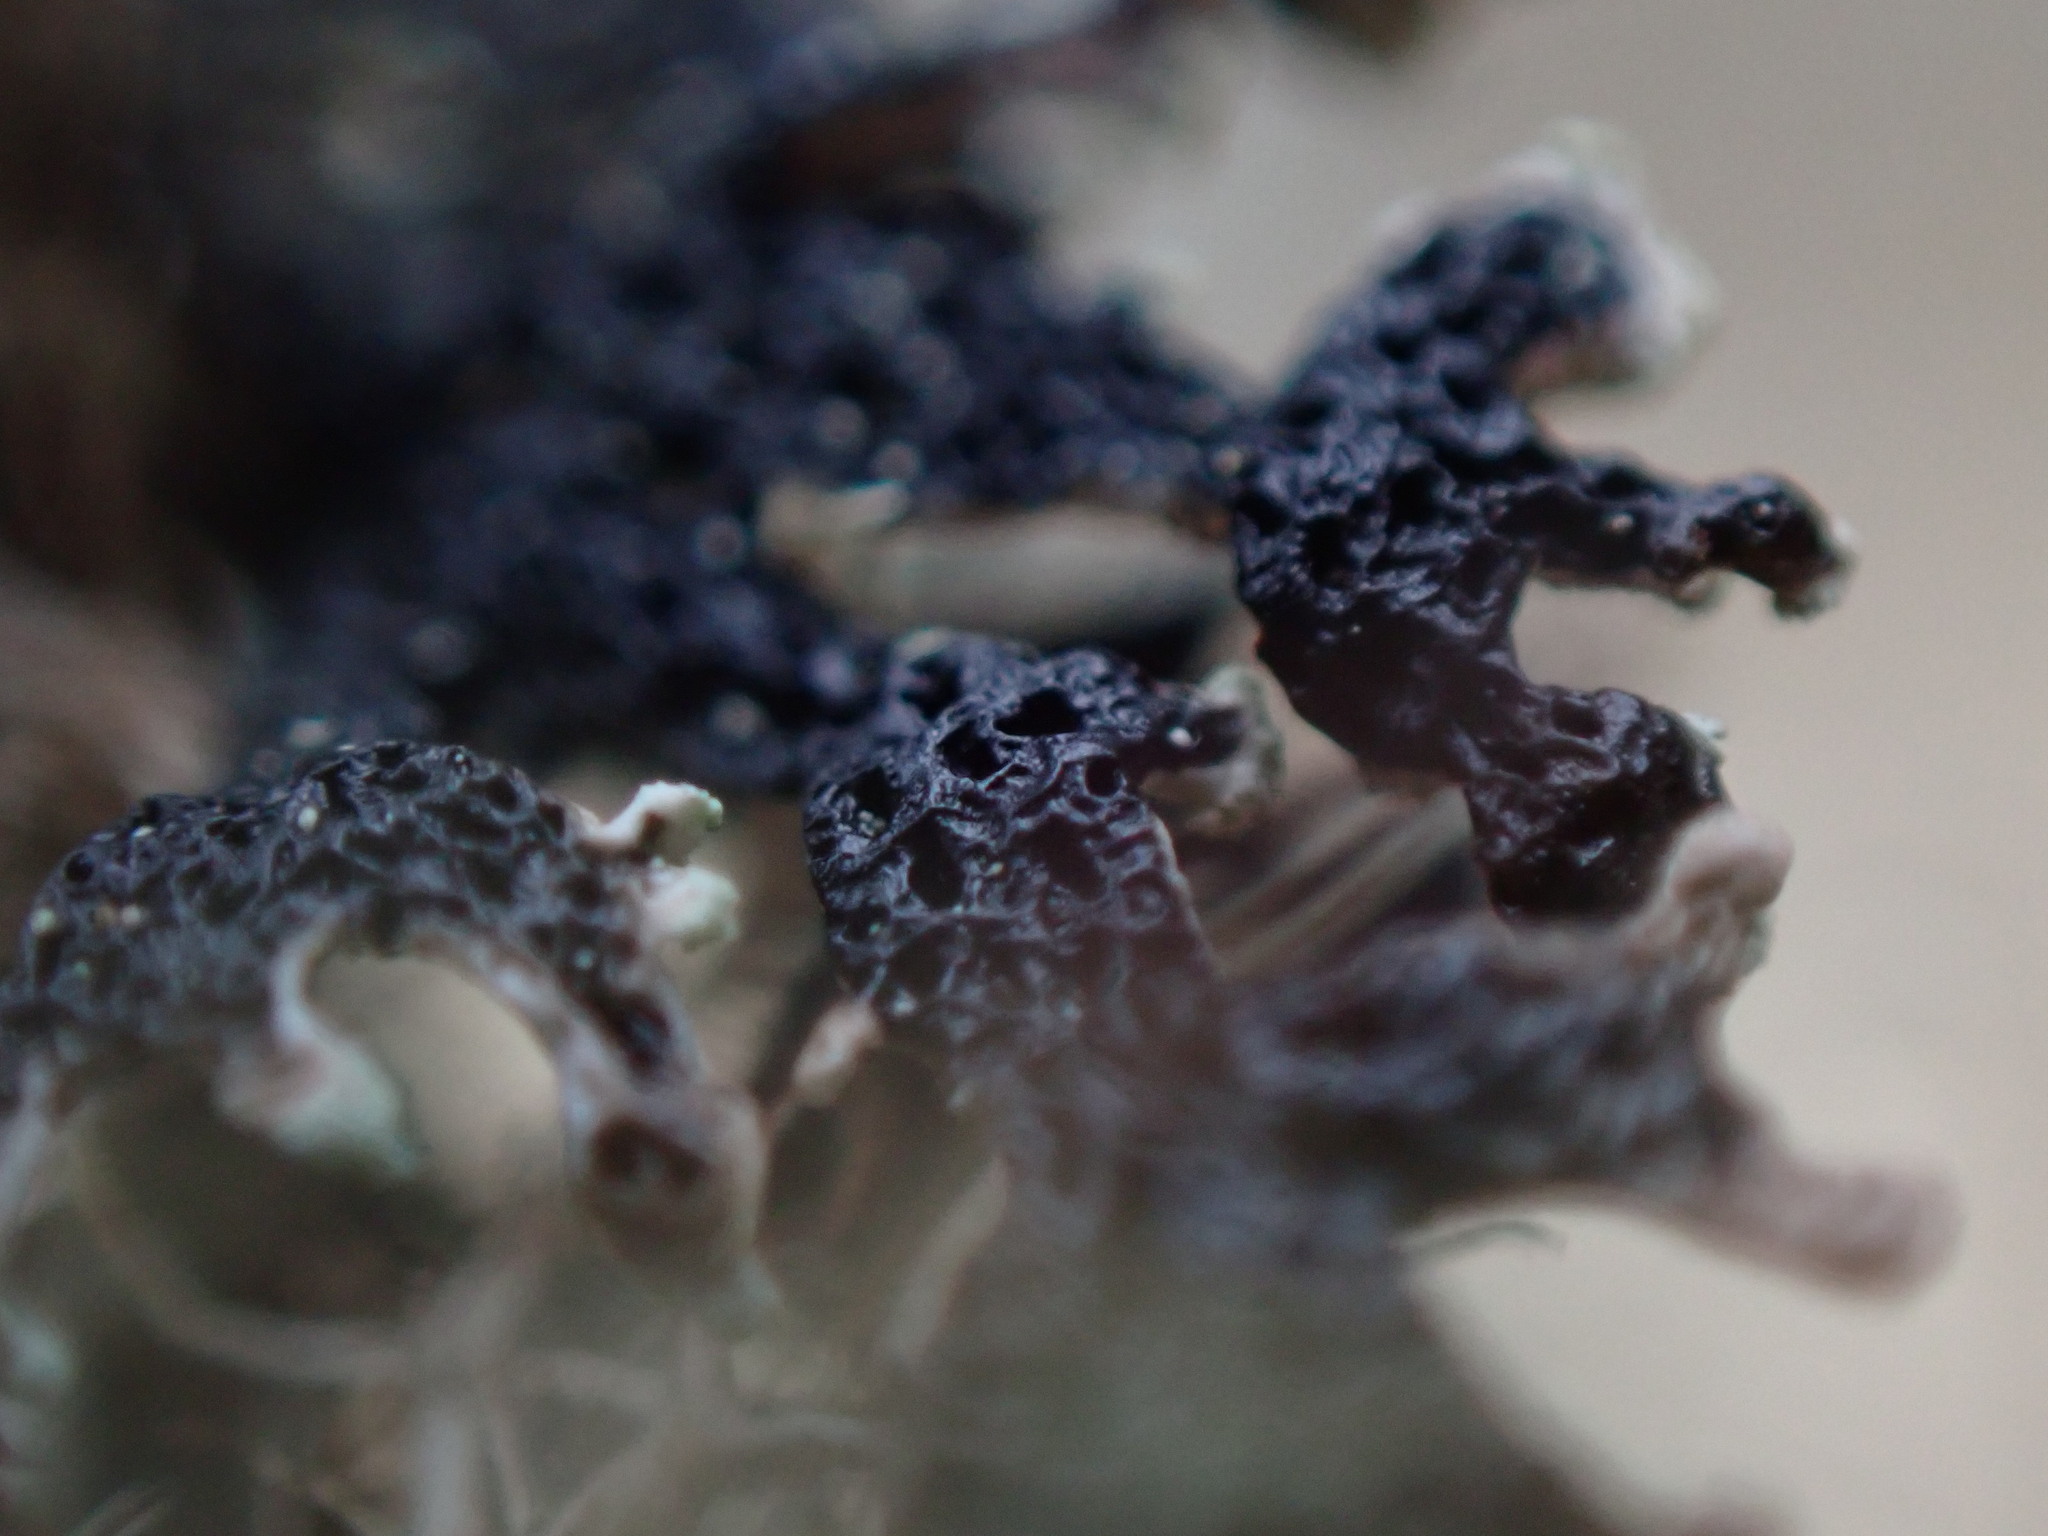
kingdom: Fungi
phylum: Ascomycota
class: Lecanoromycetes
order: Lecanorales
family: Parmeliaceae
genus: Hypogymnia
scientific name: Hypogymnia hultenii
